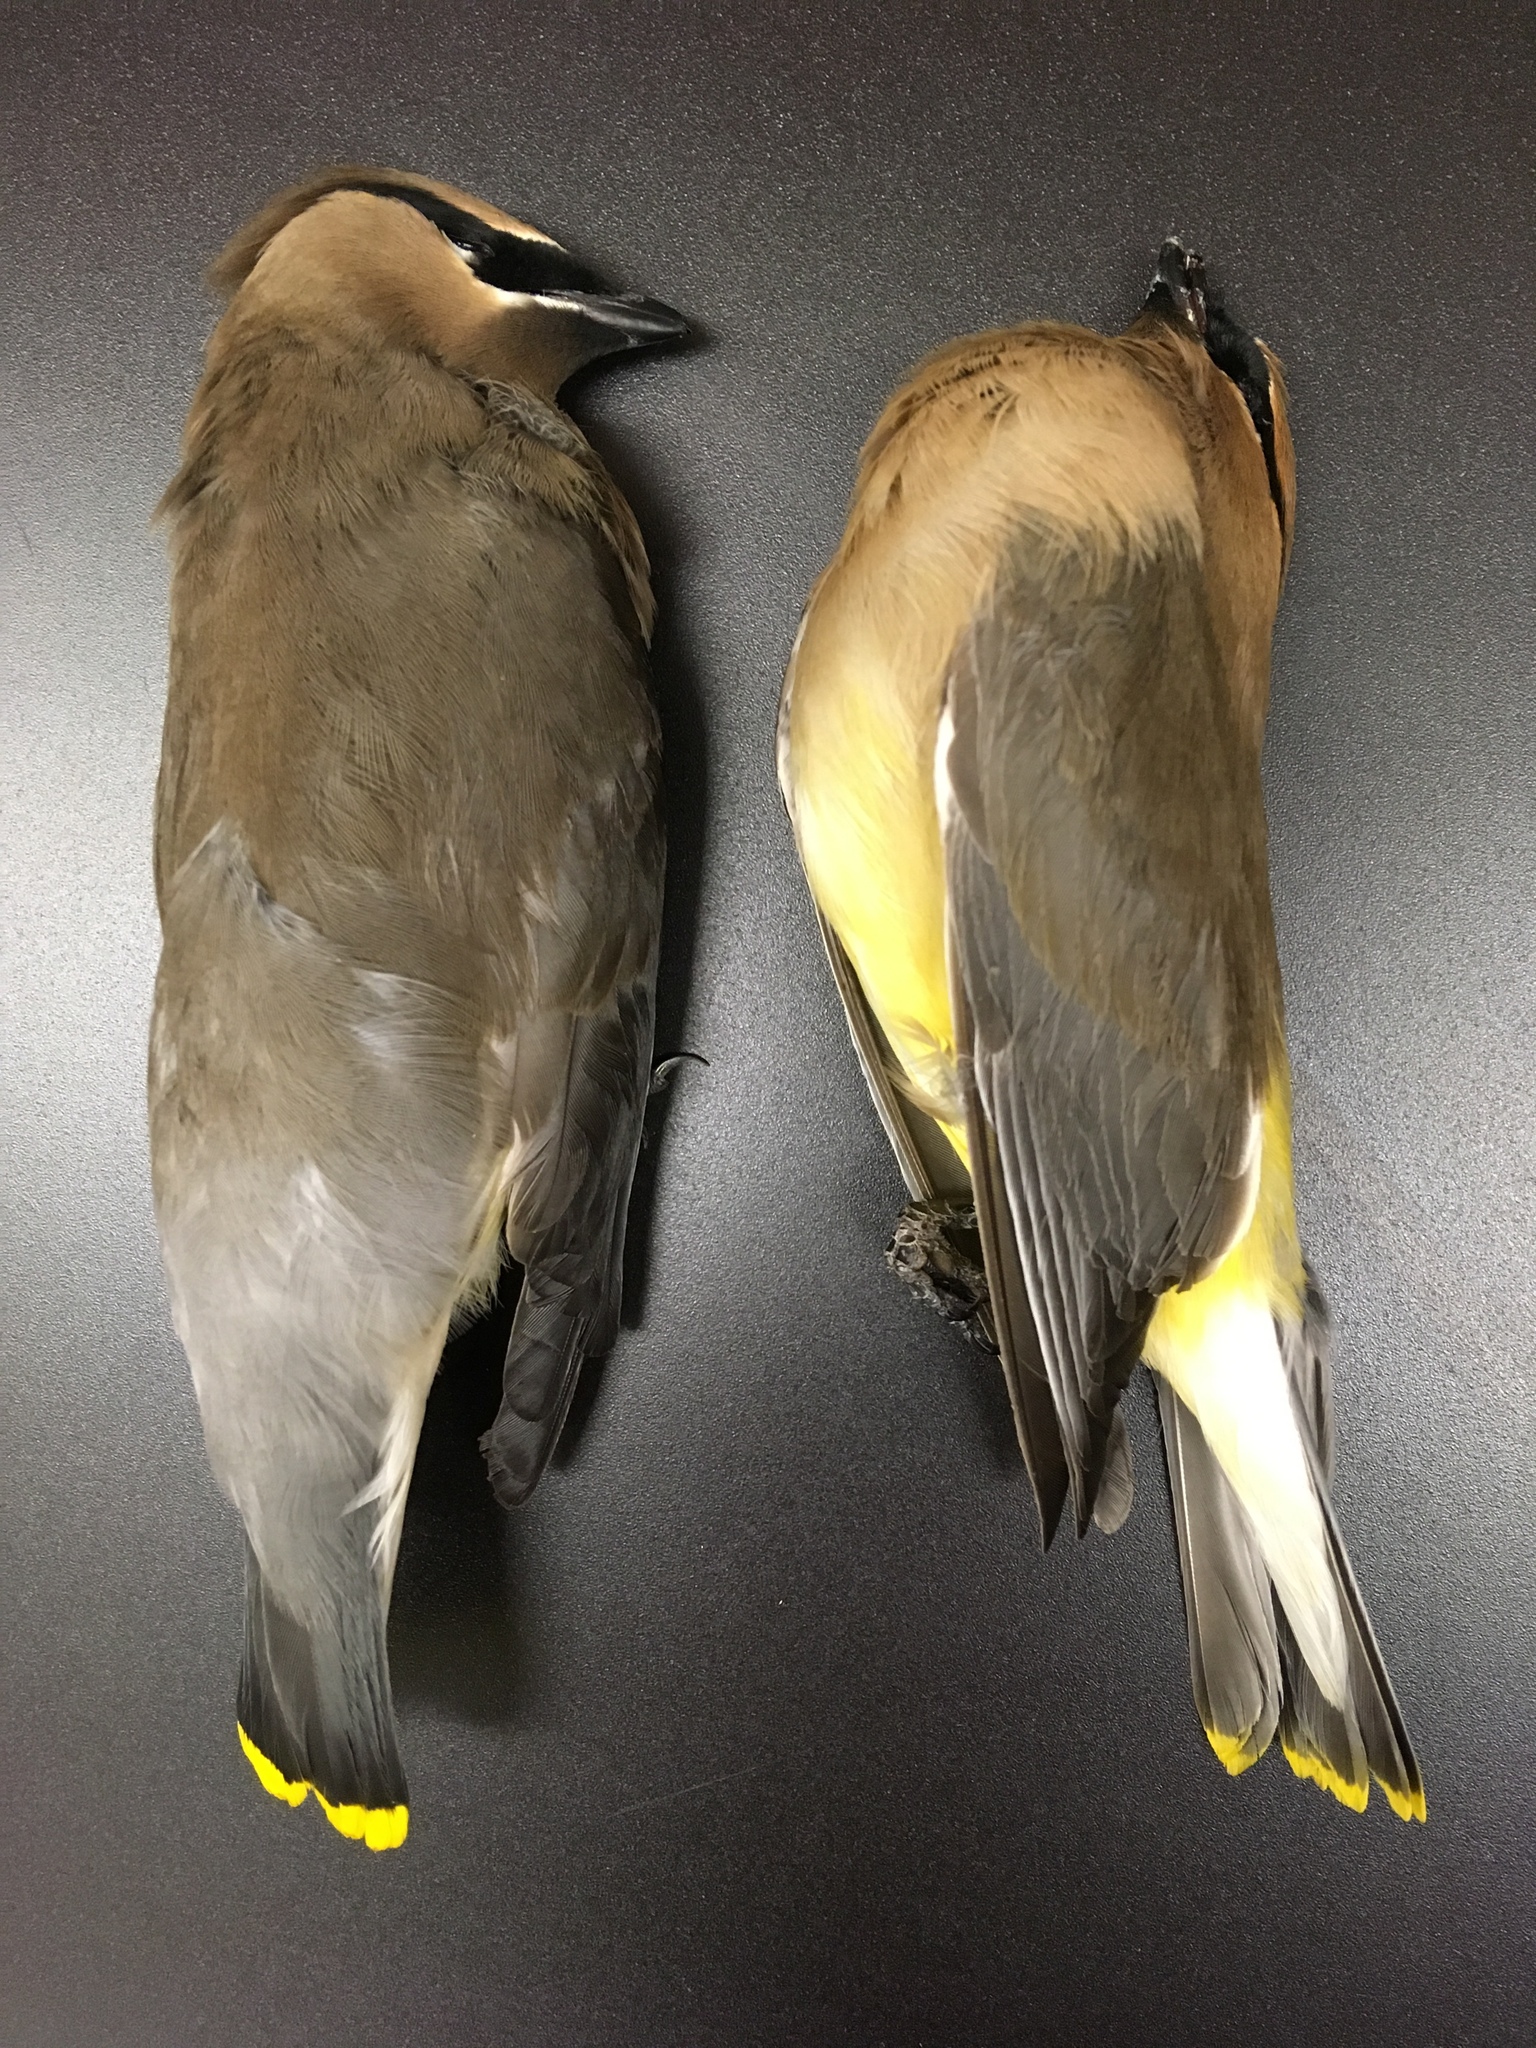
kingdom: Animalia
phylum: Chordata
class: Aves
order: Passeriformes
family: Bombycillidae
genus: Bombycilla
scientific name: Bombycilla cedrorum
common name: Cedar waxwing
